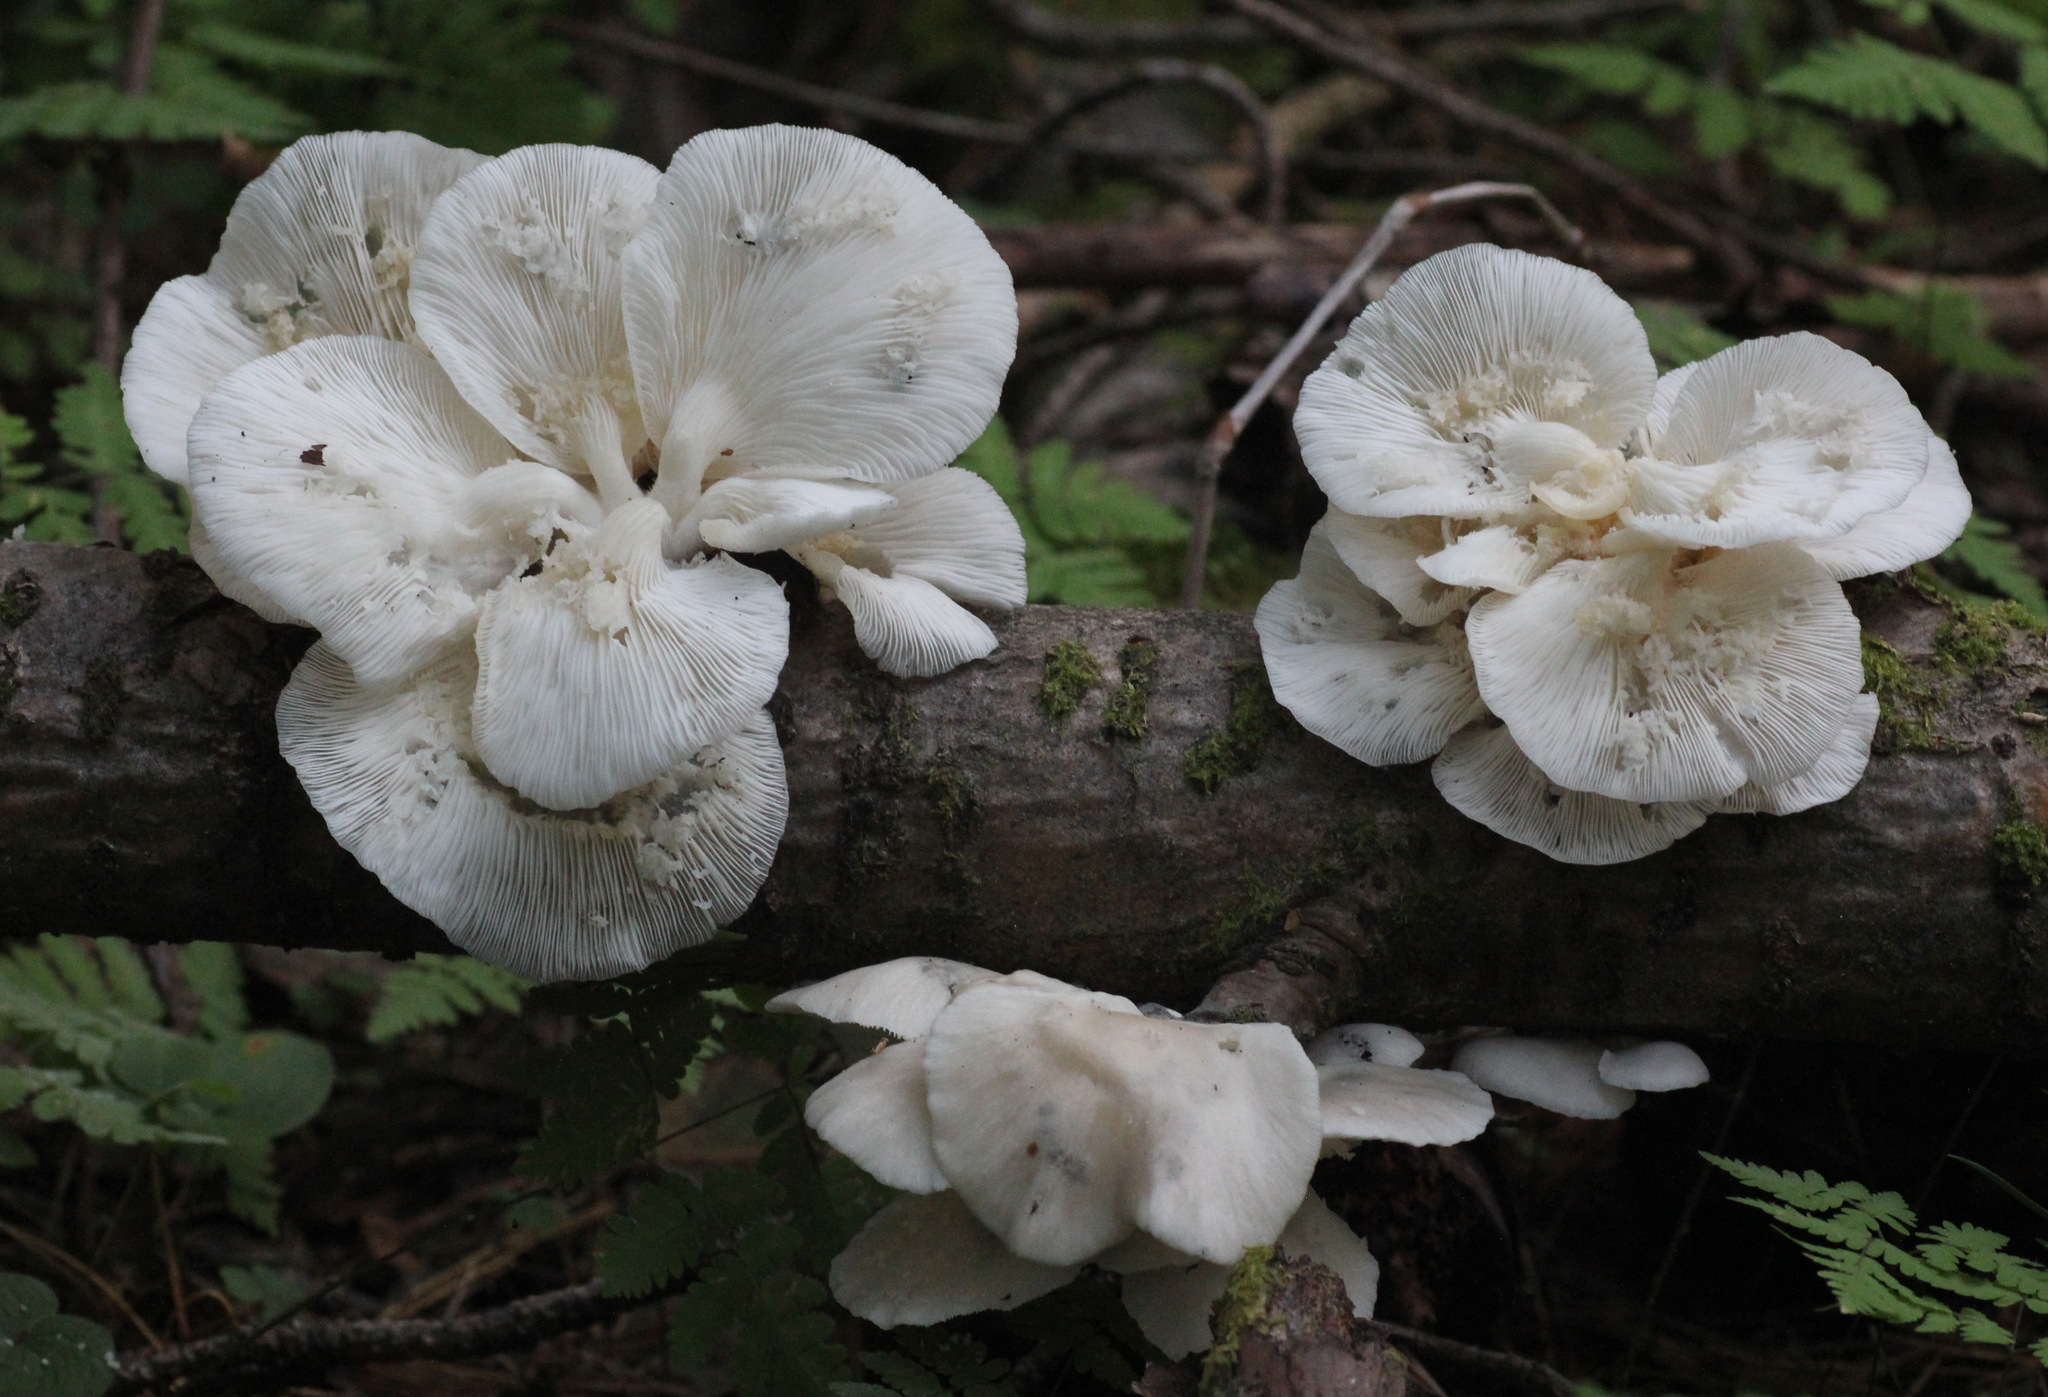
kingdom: Fungi
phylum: Basidiomycota
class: Agaricomycetes
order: Agaricales
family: Pleurotaceae
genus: Pleurotus
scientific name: Pleurotus pulmonarius
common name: Pale oyster
